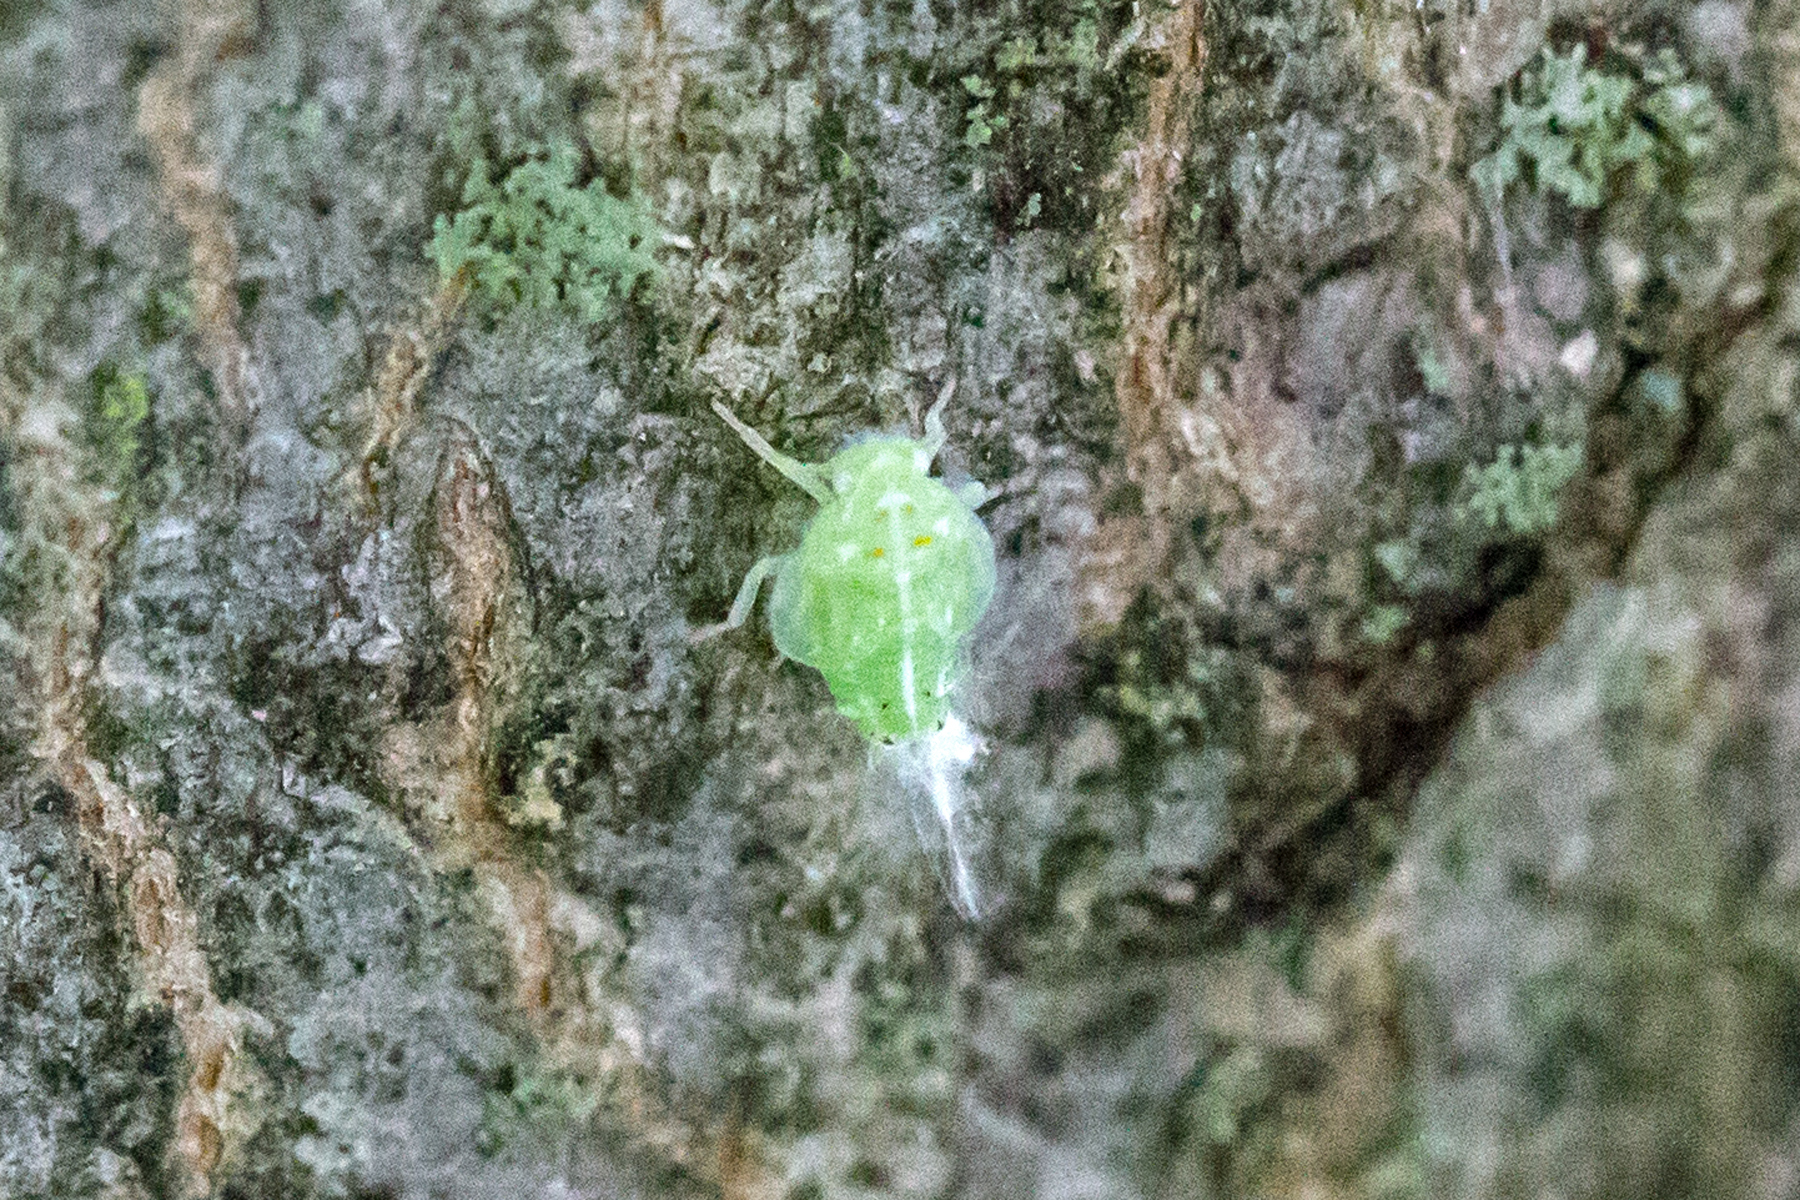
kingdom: Animalia
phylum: Arthropoda
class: Insecta
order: Hemiptera
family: Flatidae
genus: Ormenoides
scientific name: Ormenoides venusta
